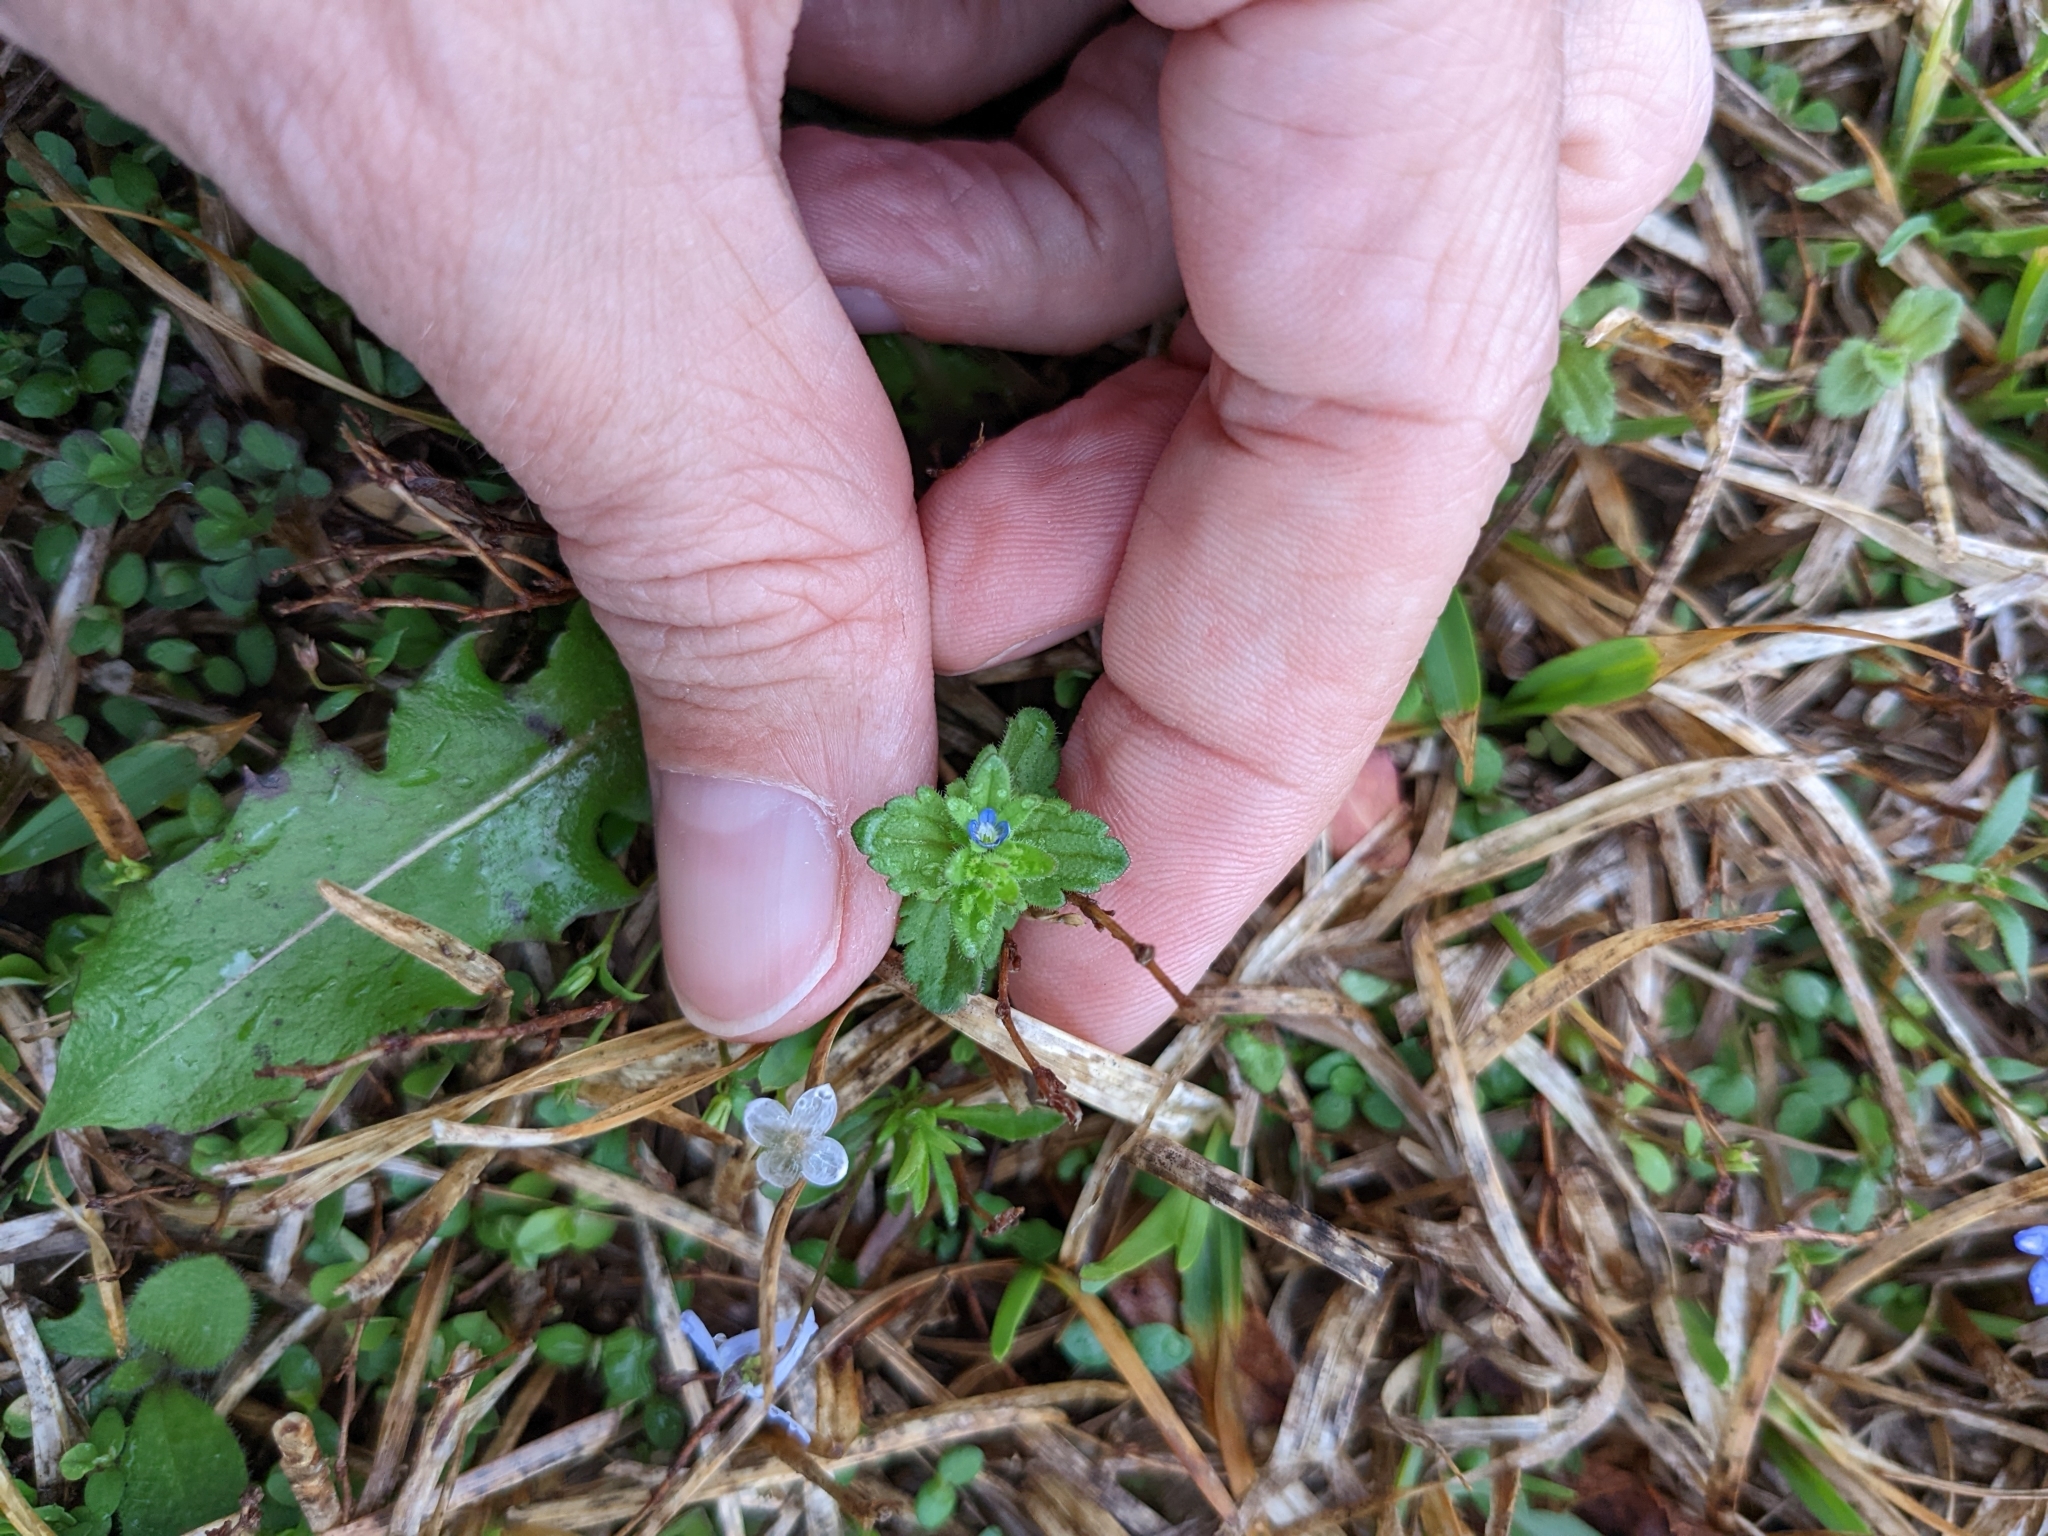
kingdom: Plantae
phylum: Tracheophyta
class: Magnoliopsida
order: Lamiales
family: Plantaginaceae
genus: Veronica
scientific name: Veronica arvensis
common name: Corn speedwell
